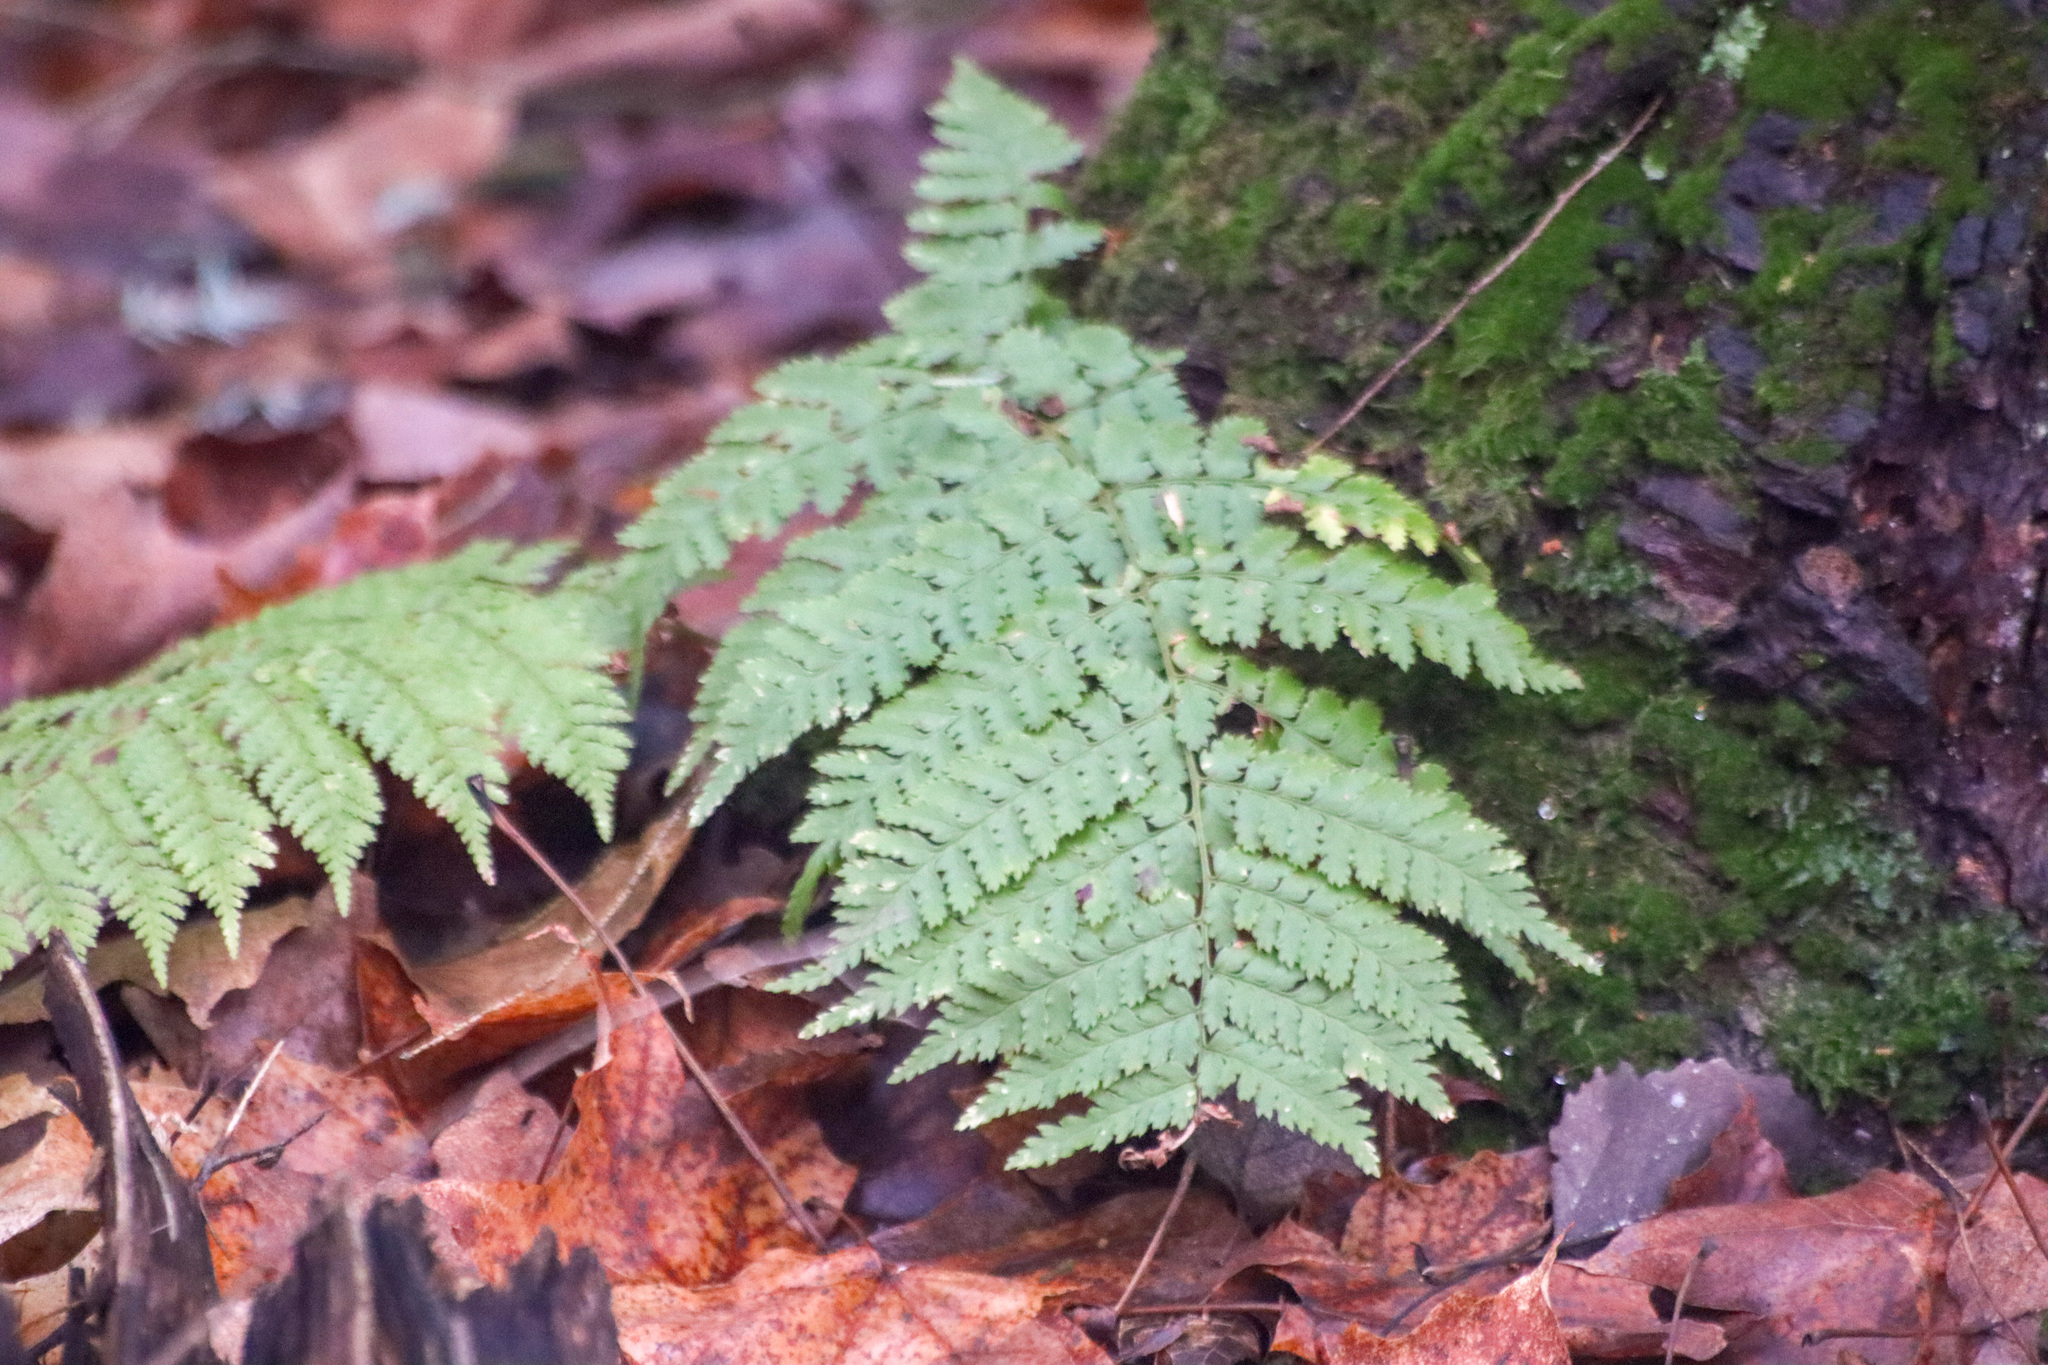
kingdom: Plantae
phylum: Tracheophyta
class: Polypodiopsida
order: Polypodiales
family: Dryopteridaceae
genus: Dryopteris
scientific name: Dryopteris intermedia
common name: Evergreen wood fern
